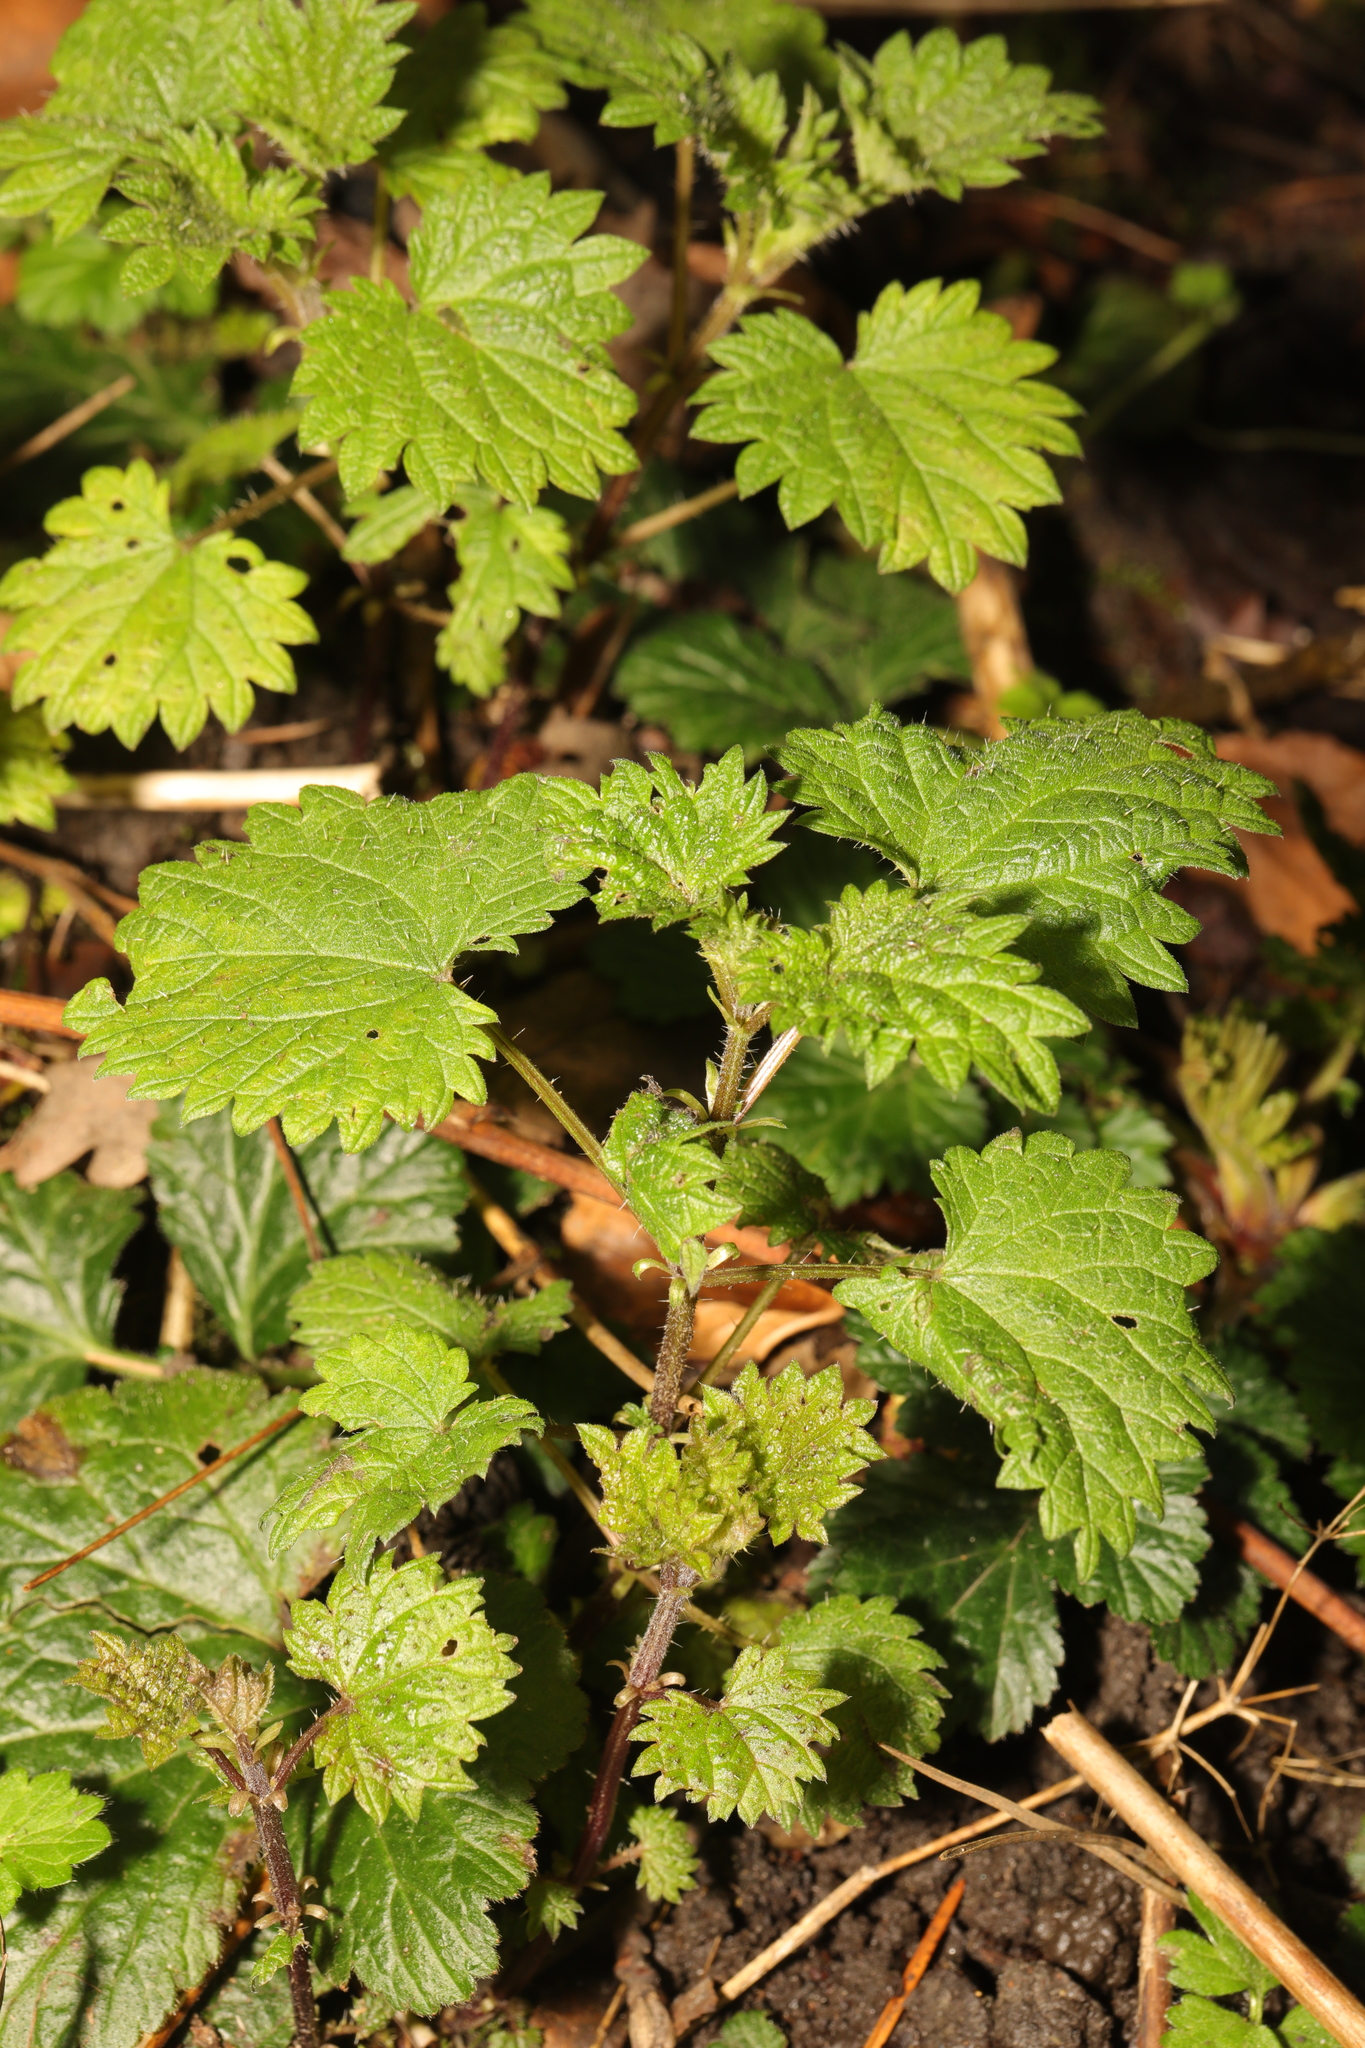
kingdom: Plantae
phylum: Tracheophyta
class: Magnoliopsida
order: Rosales
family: Urticaceae
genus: Urtica
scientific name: Urtica dioica
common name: Common nettle
